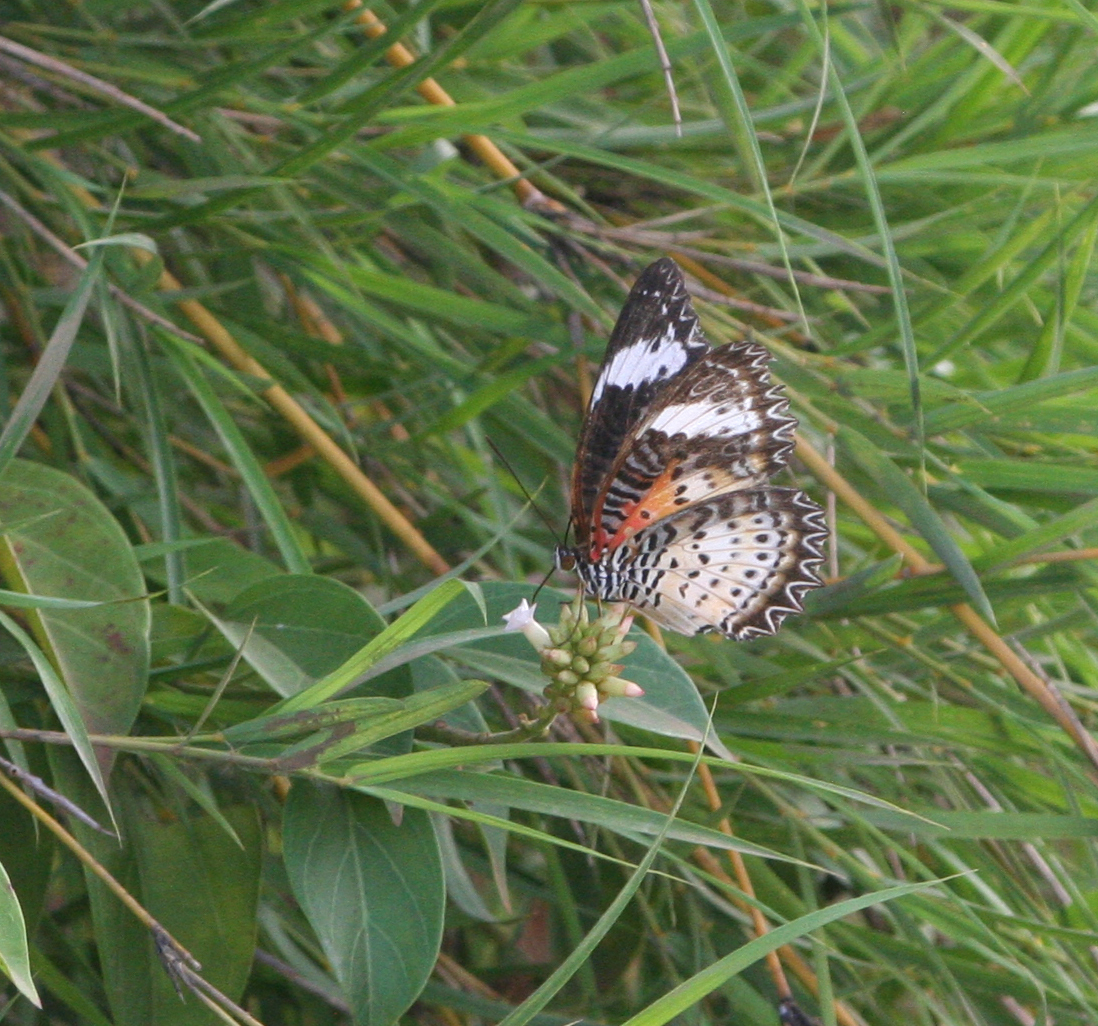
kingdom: Animalia
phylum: Arthropoda
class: Insecta
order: Lepidoptera
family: Nymphalidae
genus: Cethosia
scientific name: Cethosia cyane
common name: Leopard lacewing butterfly
